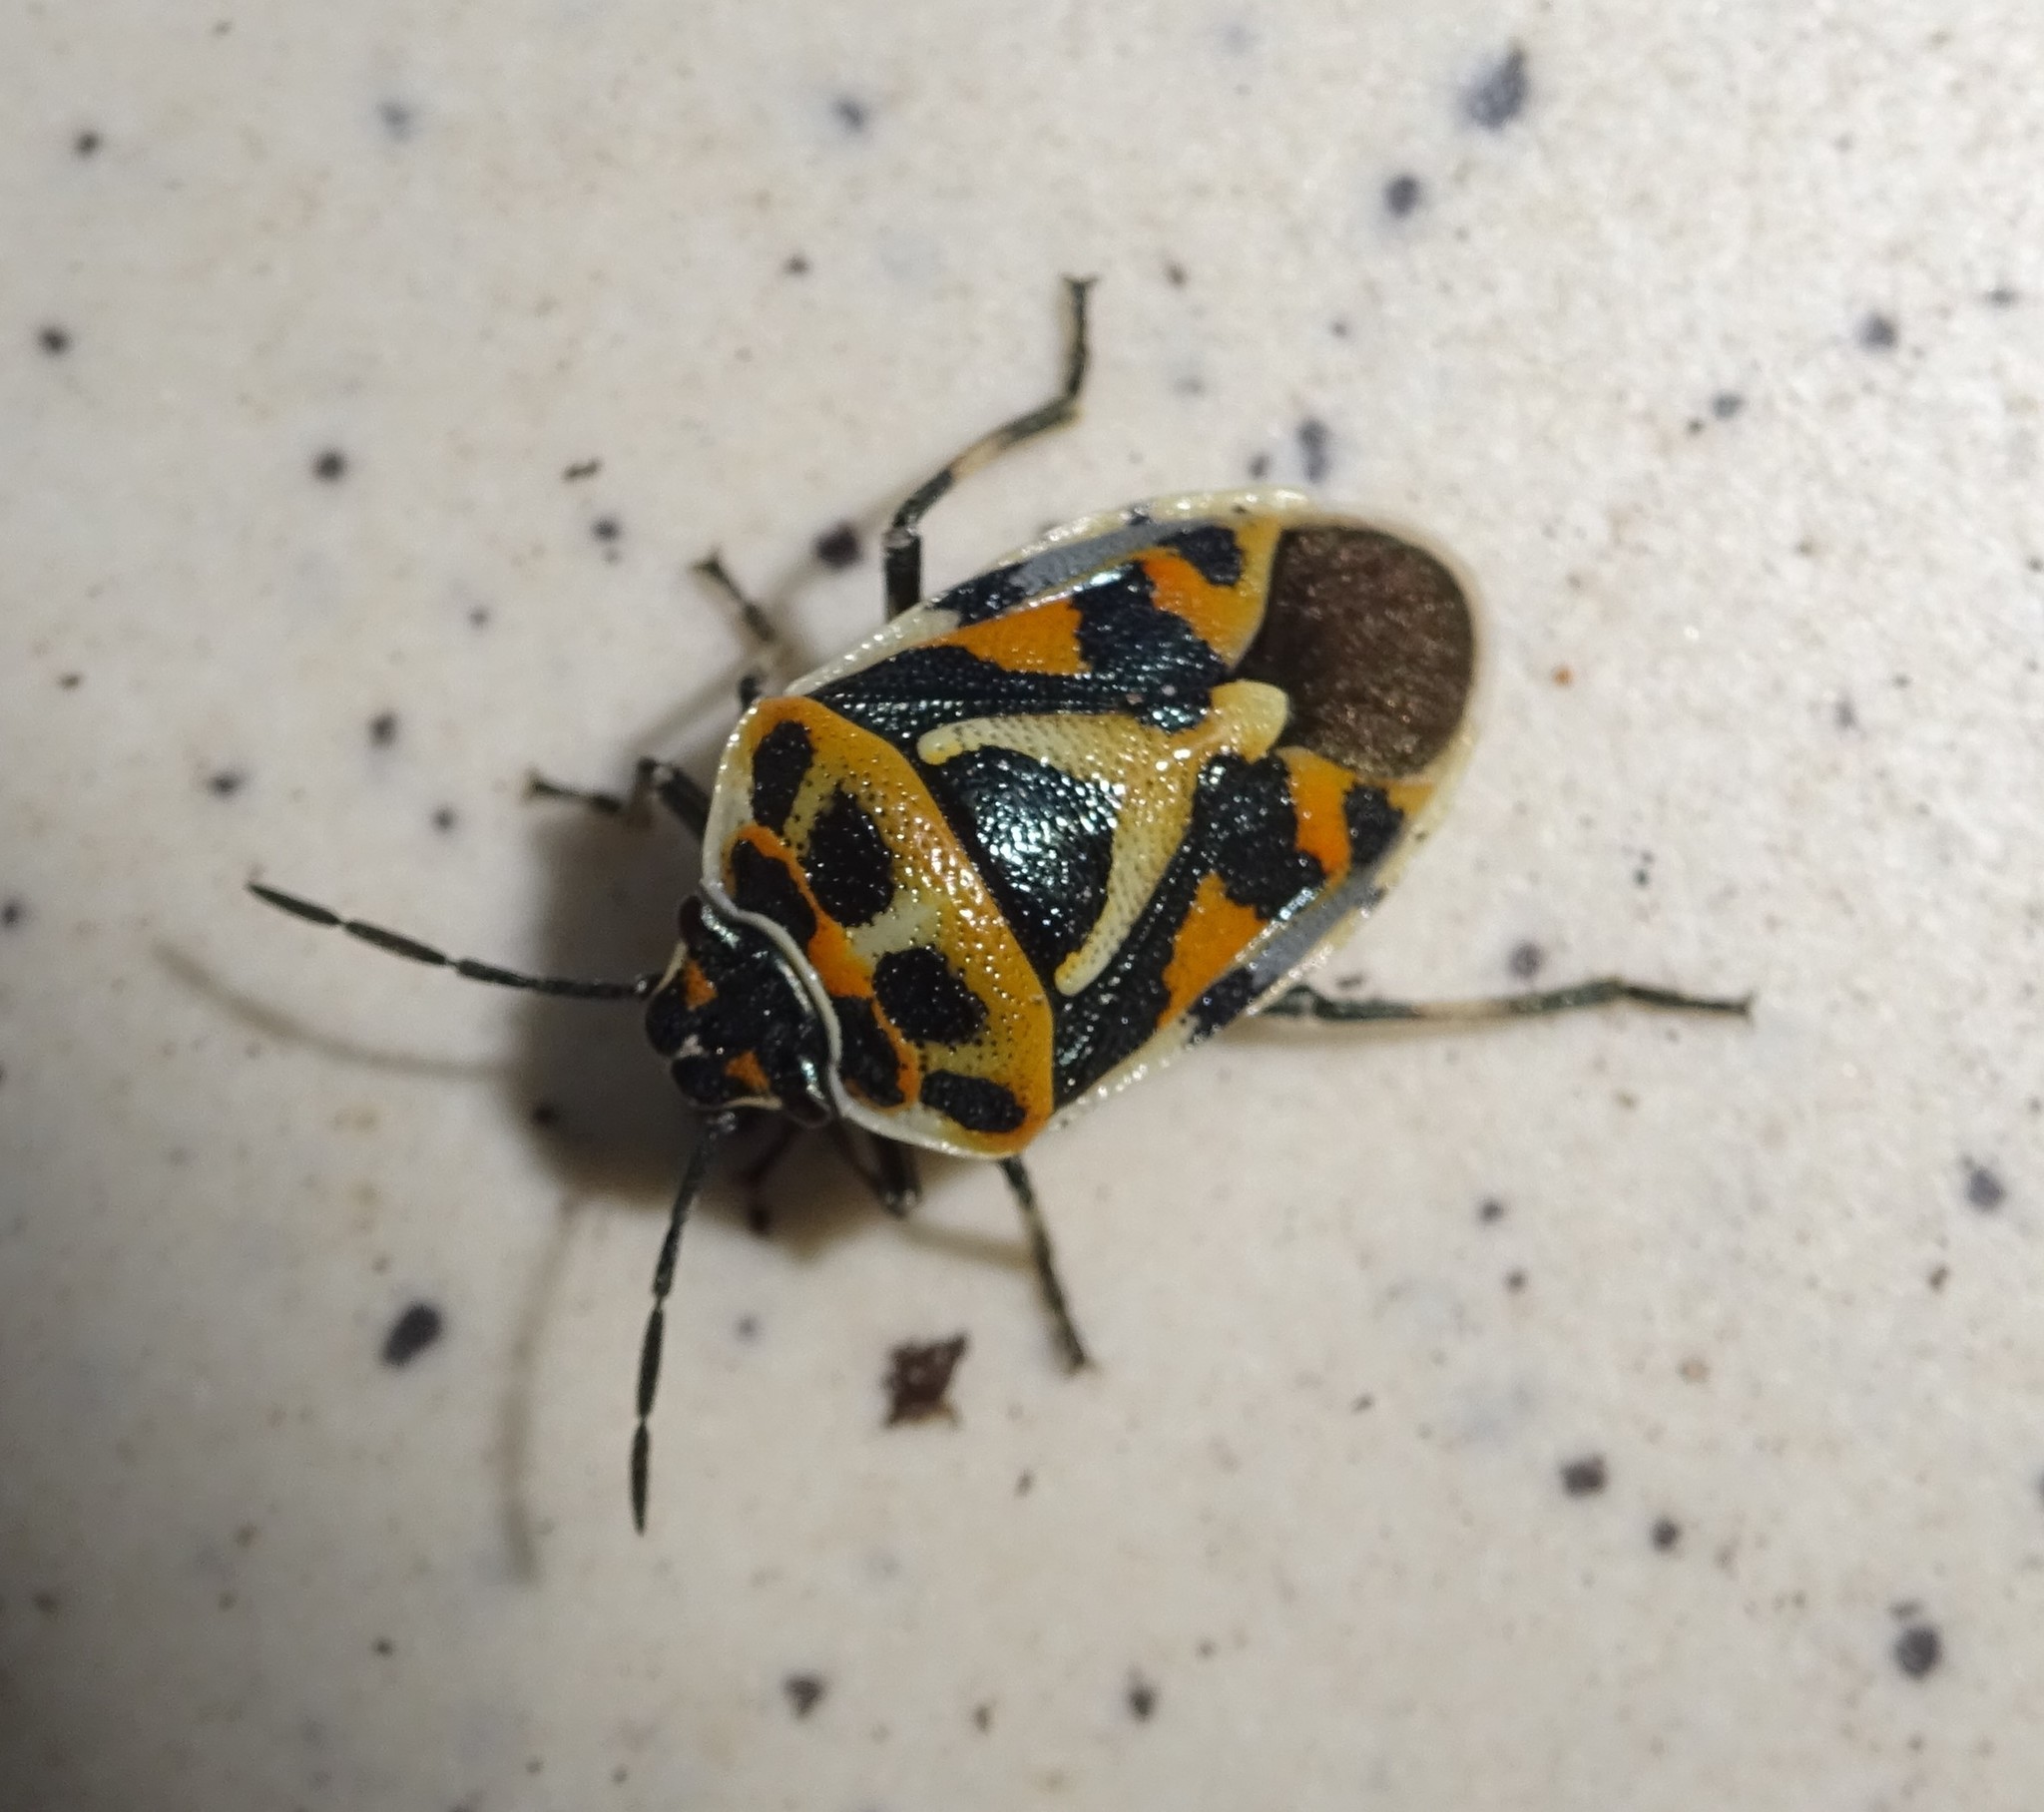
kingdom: Animalia
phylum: Arthropoda
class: Insecta
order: Hemiptera
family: Pentatomidae
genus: Eurydema
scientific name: Eurydema ornata
